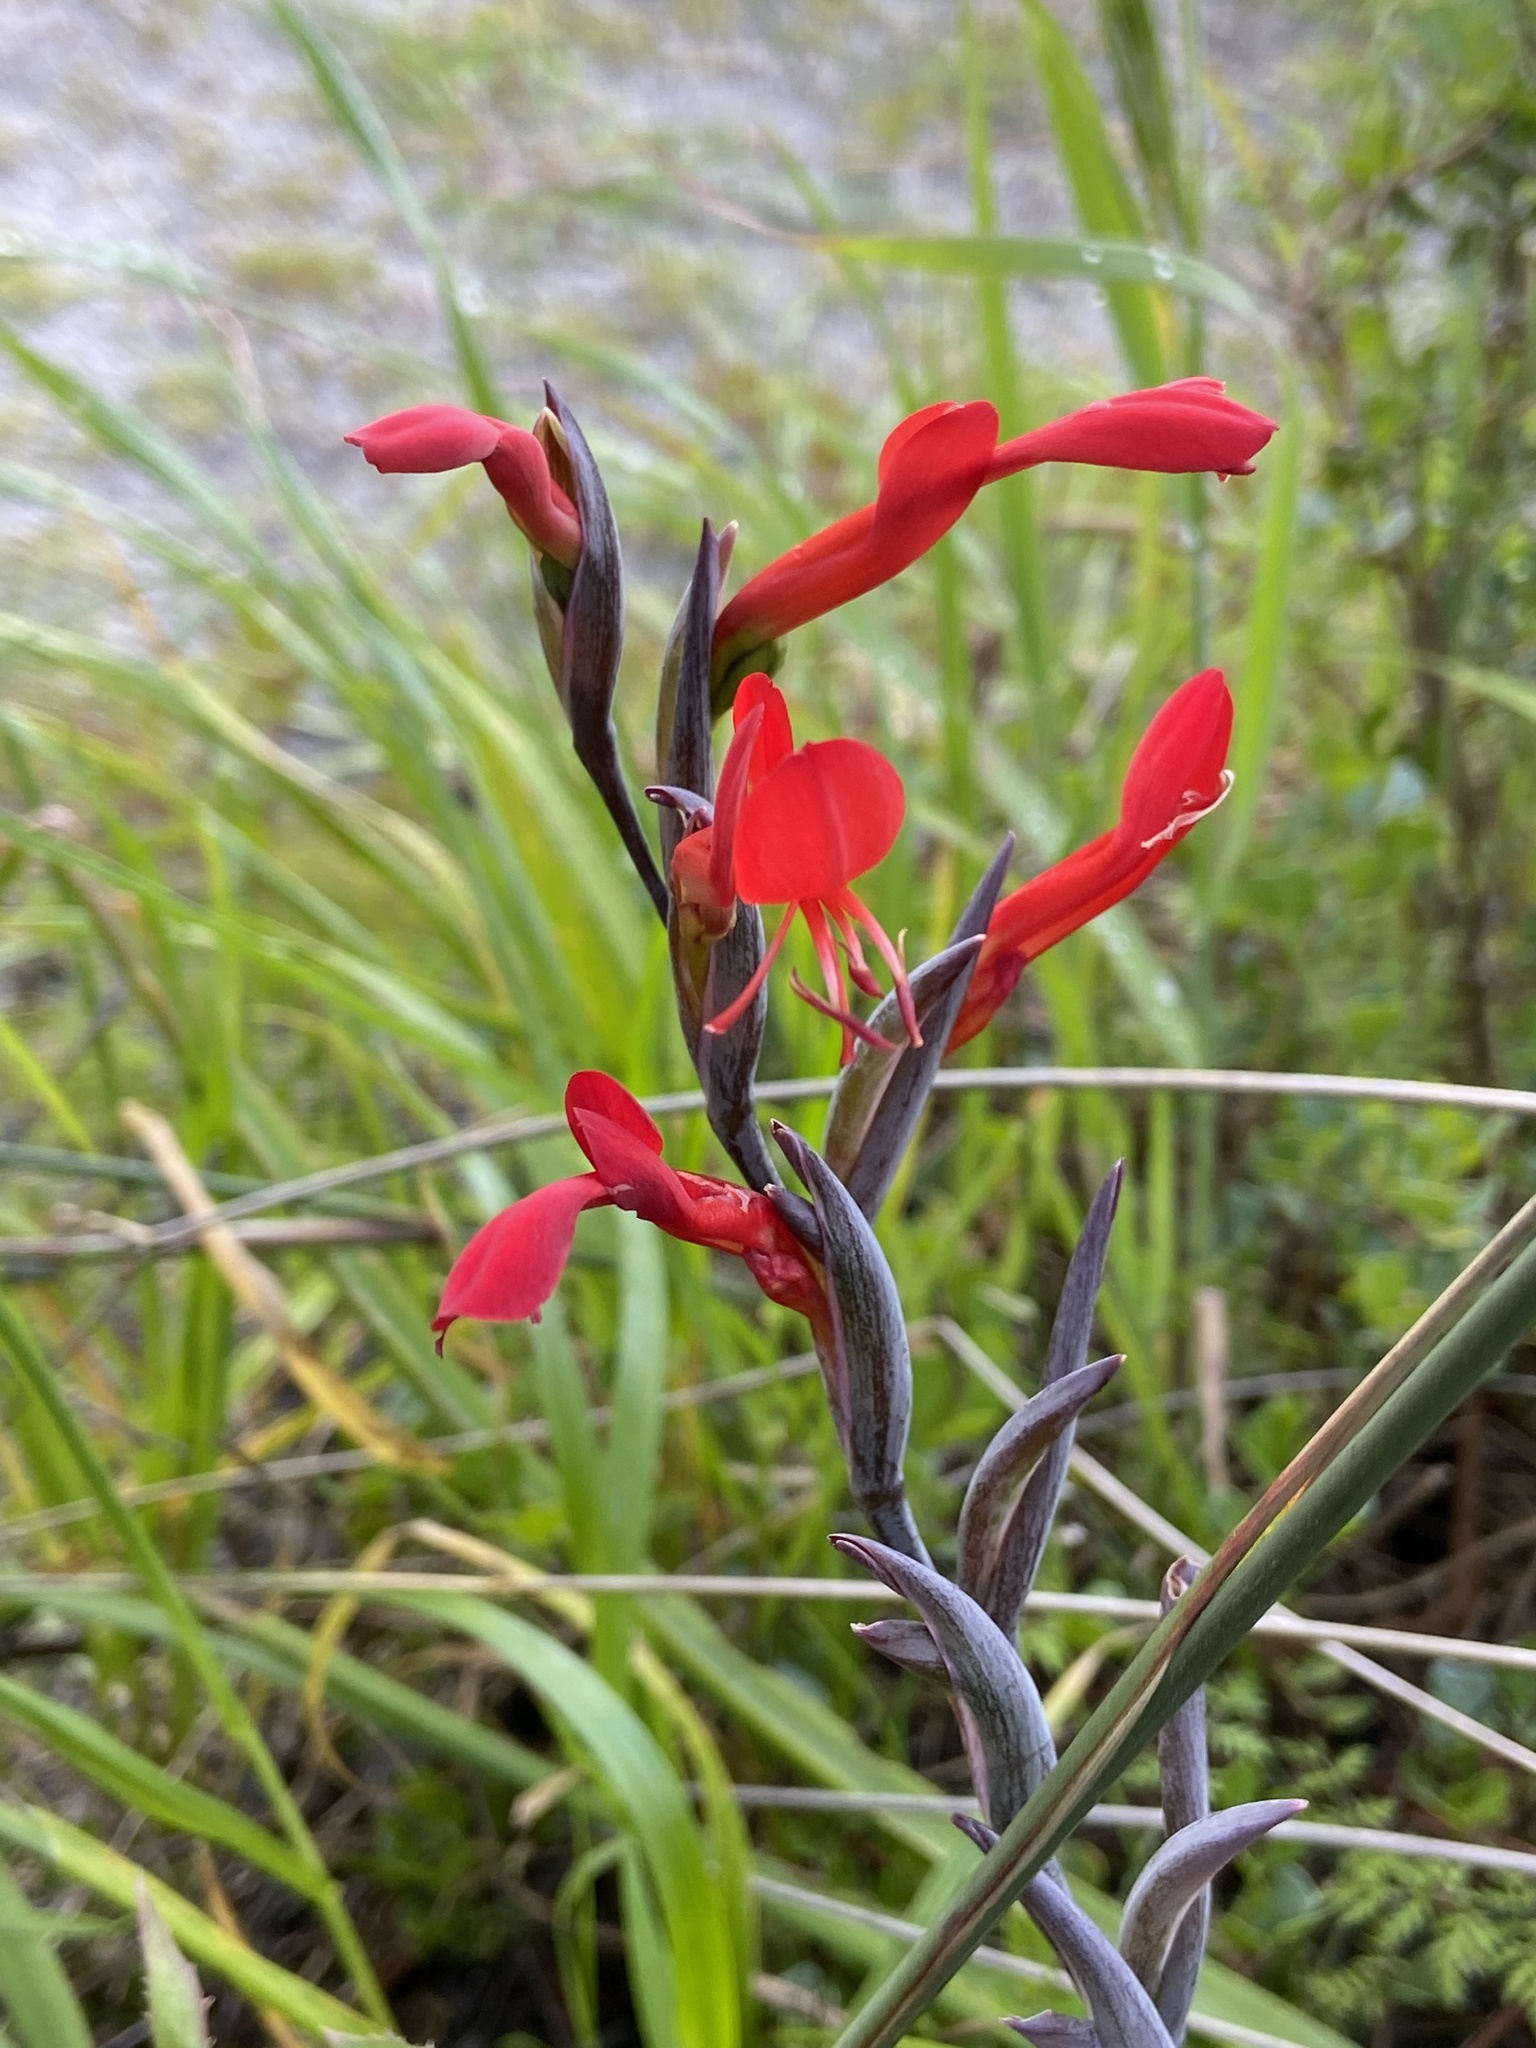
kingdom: Plantae
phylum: Tracheophyta
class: Liliopsida
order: Asparagales
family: Iridaceae
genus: Gladiolus
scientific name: Gladiolus cunonius
